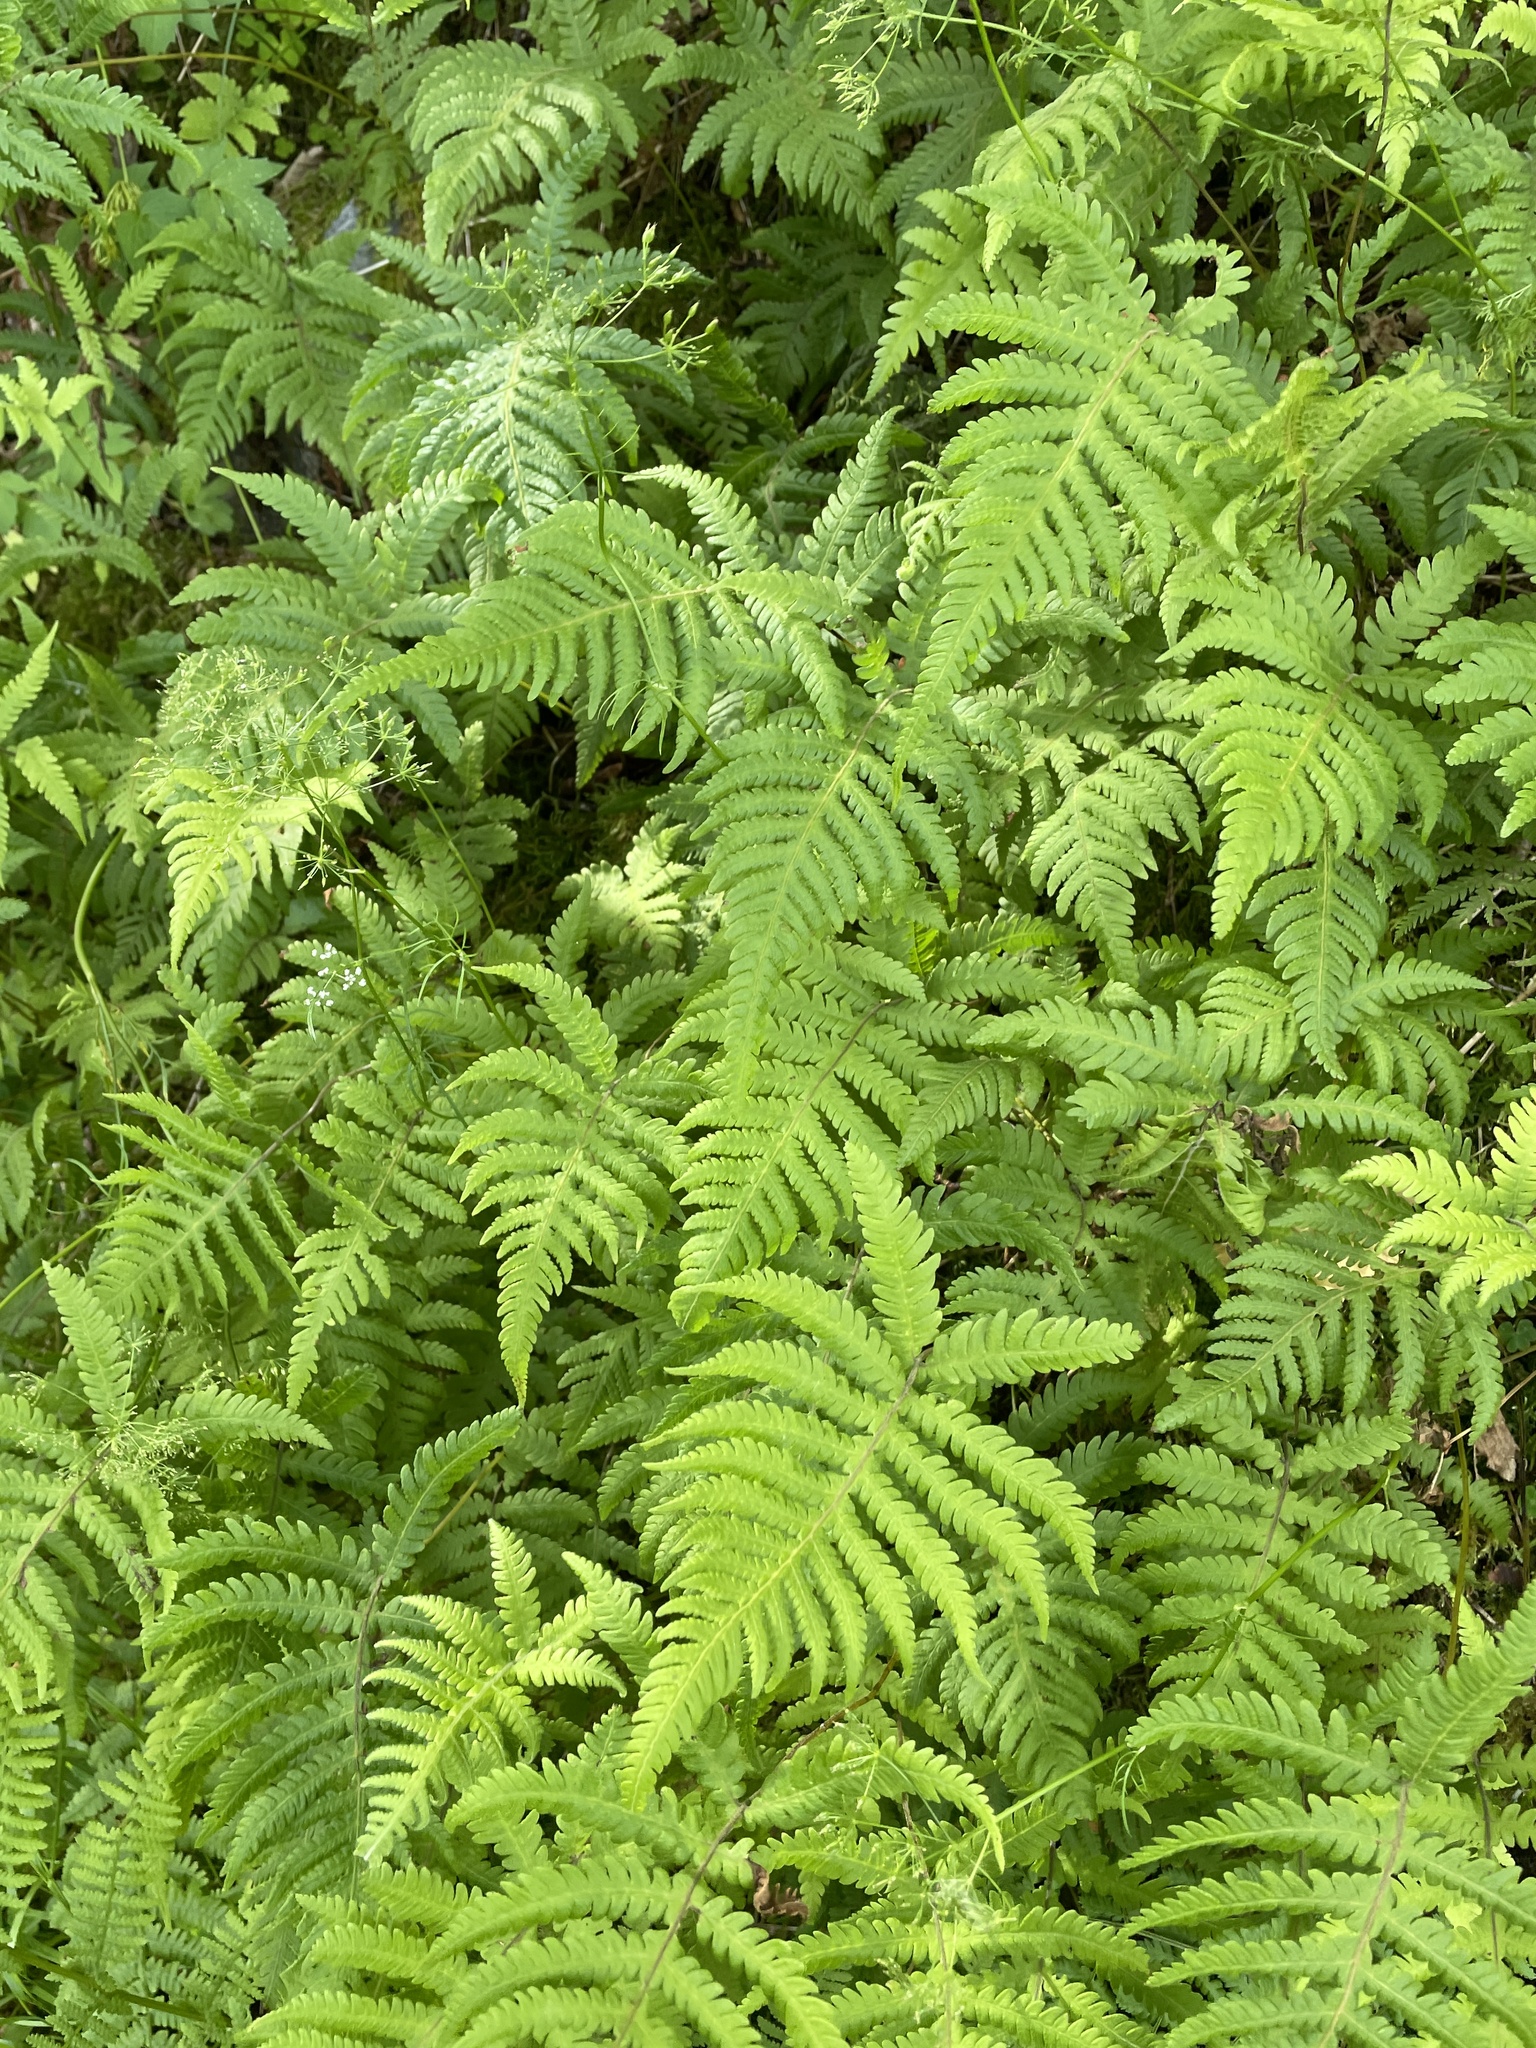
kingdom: Plantae
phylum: Tracheophyta
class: Polypodiopsida
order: Polypodiales
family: Thelypteridaceae
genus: Phegopteris
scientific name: Phegopteris connectilis
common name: Beech fern
